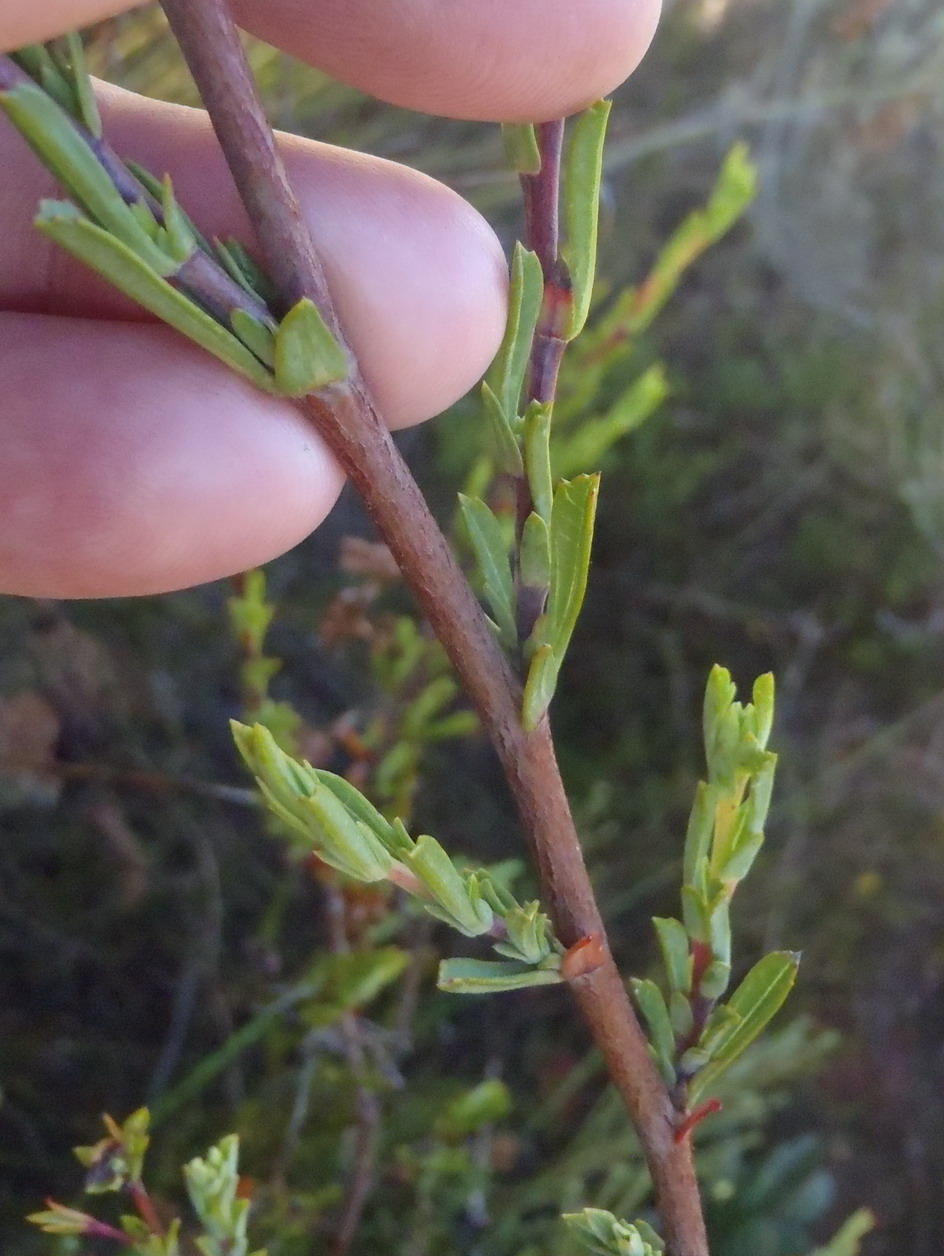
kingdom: Plantae
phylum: Tracheophyta
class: Magnoliopsida
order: Malvales
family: Malvaceae
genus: Hermannia
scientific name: Hermannia
